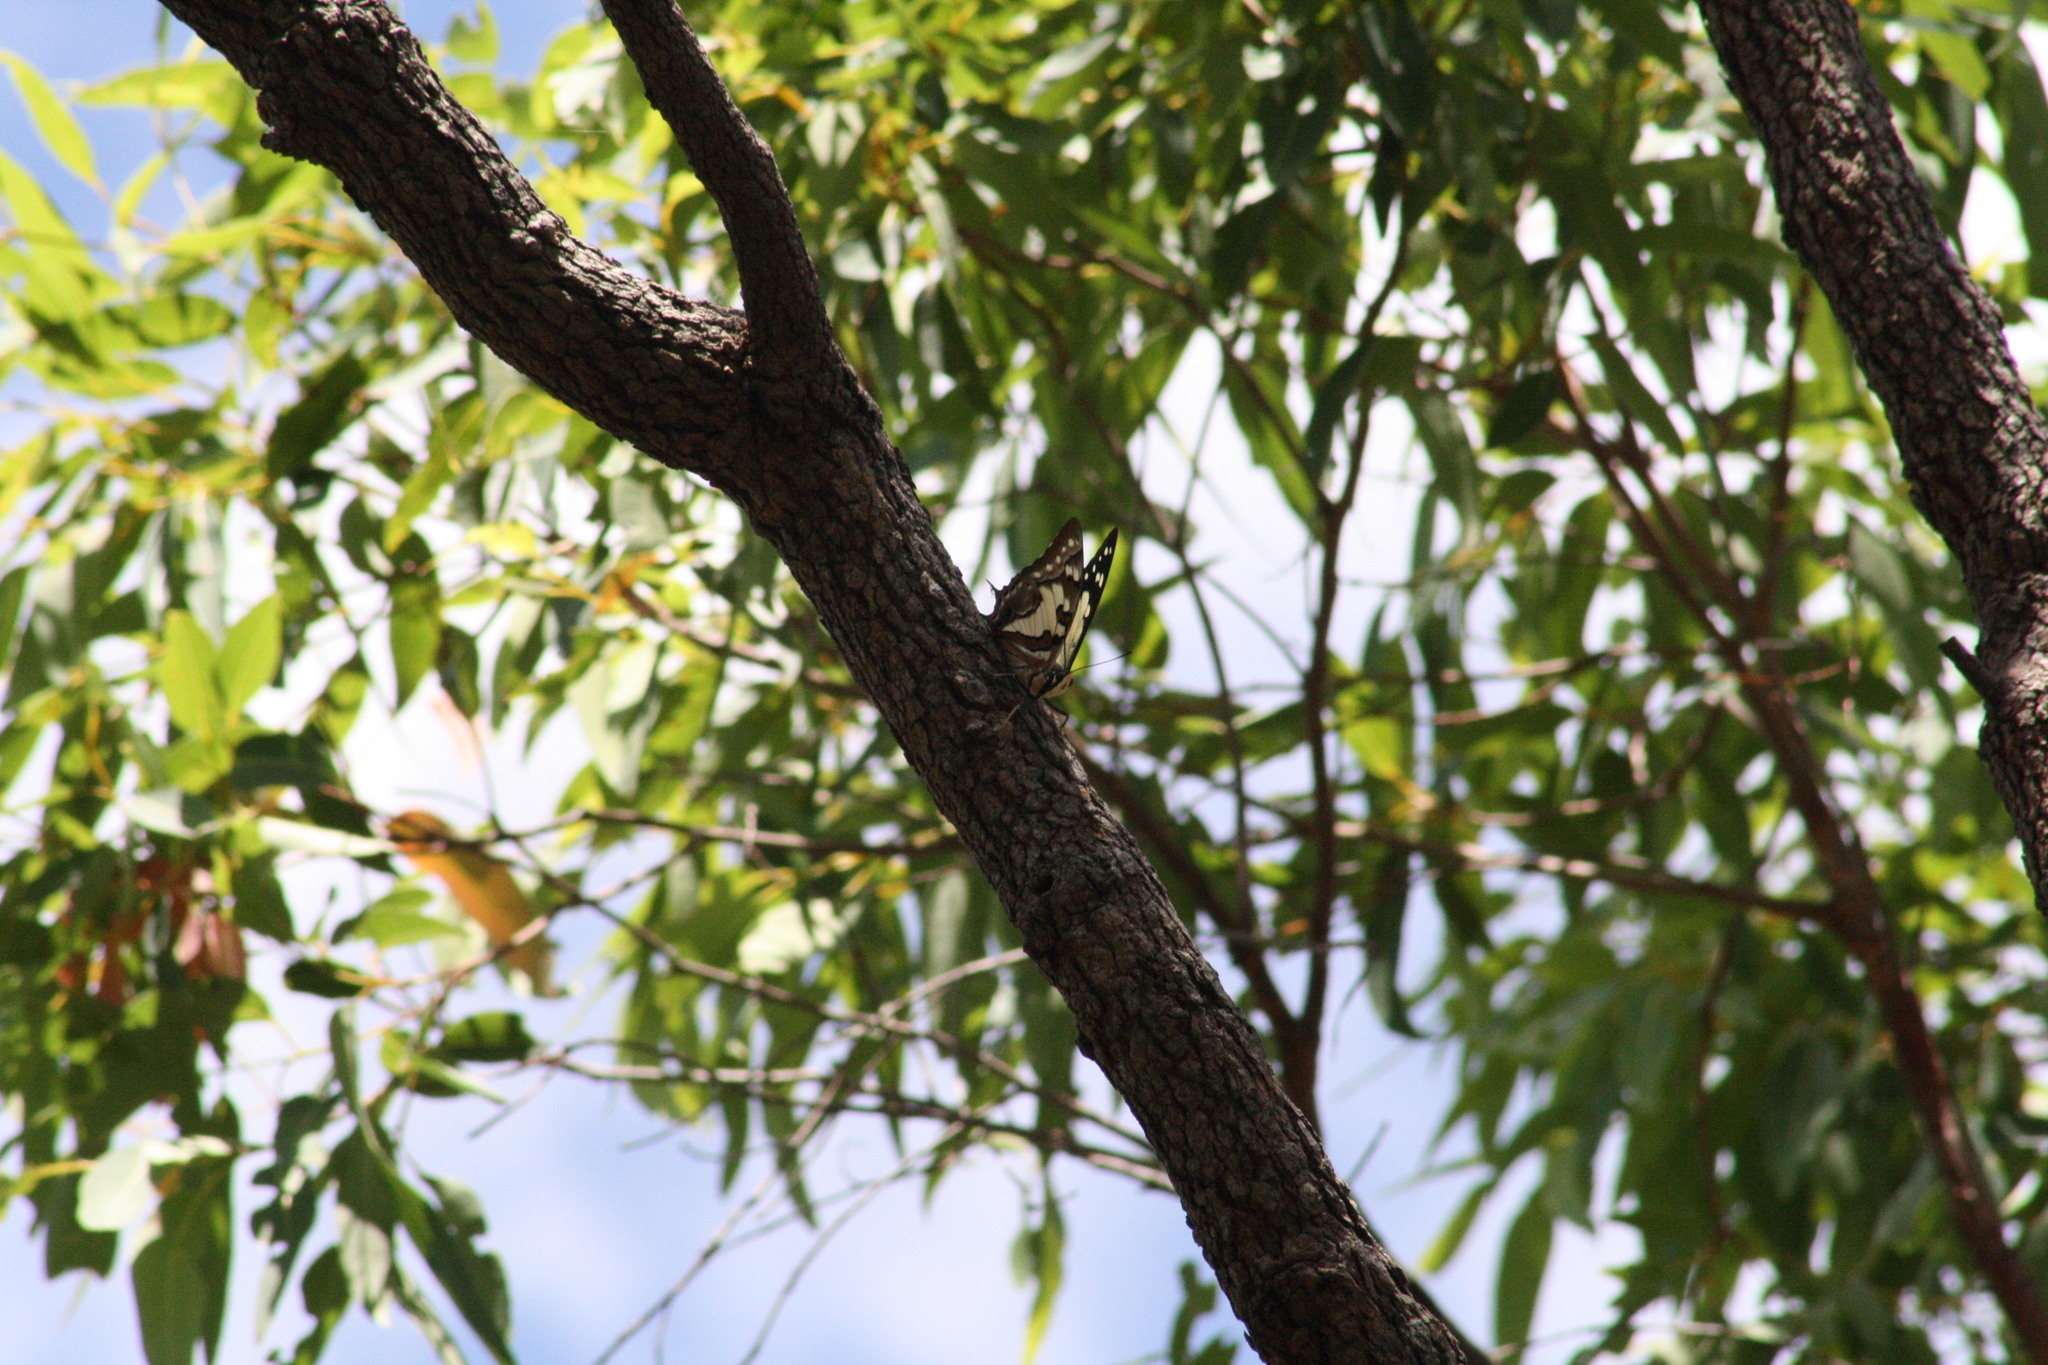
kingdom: Animalia
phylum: Arthropoda
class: Insecta
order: Lepidoptera
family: Nymphalidae
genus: Charaxes
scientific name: Charaxes
